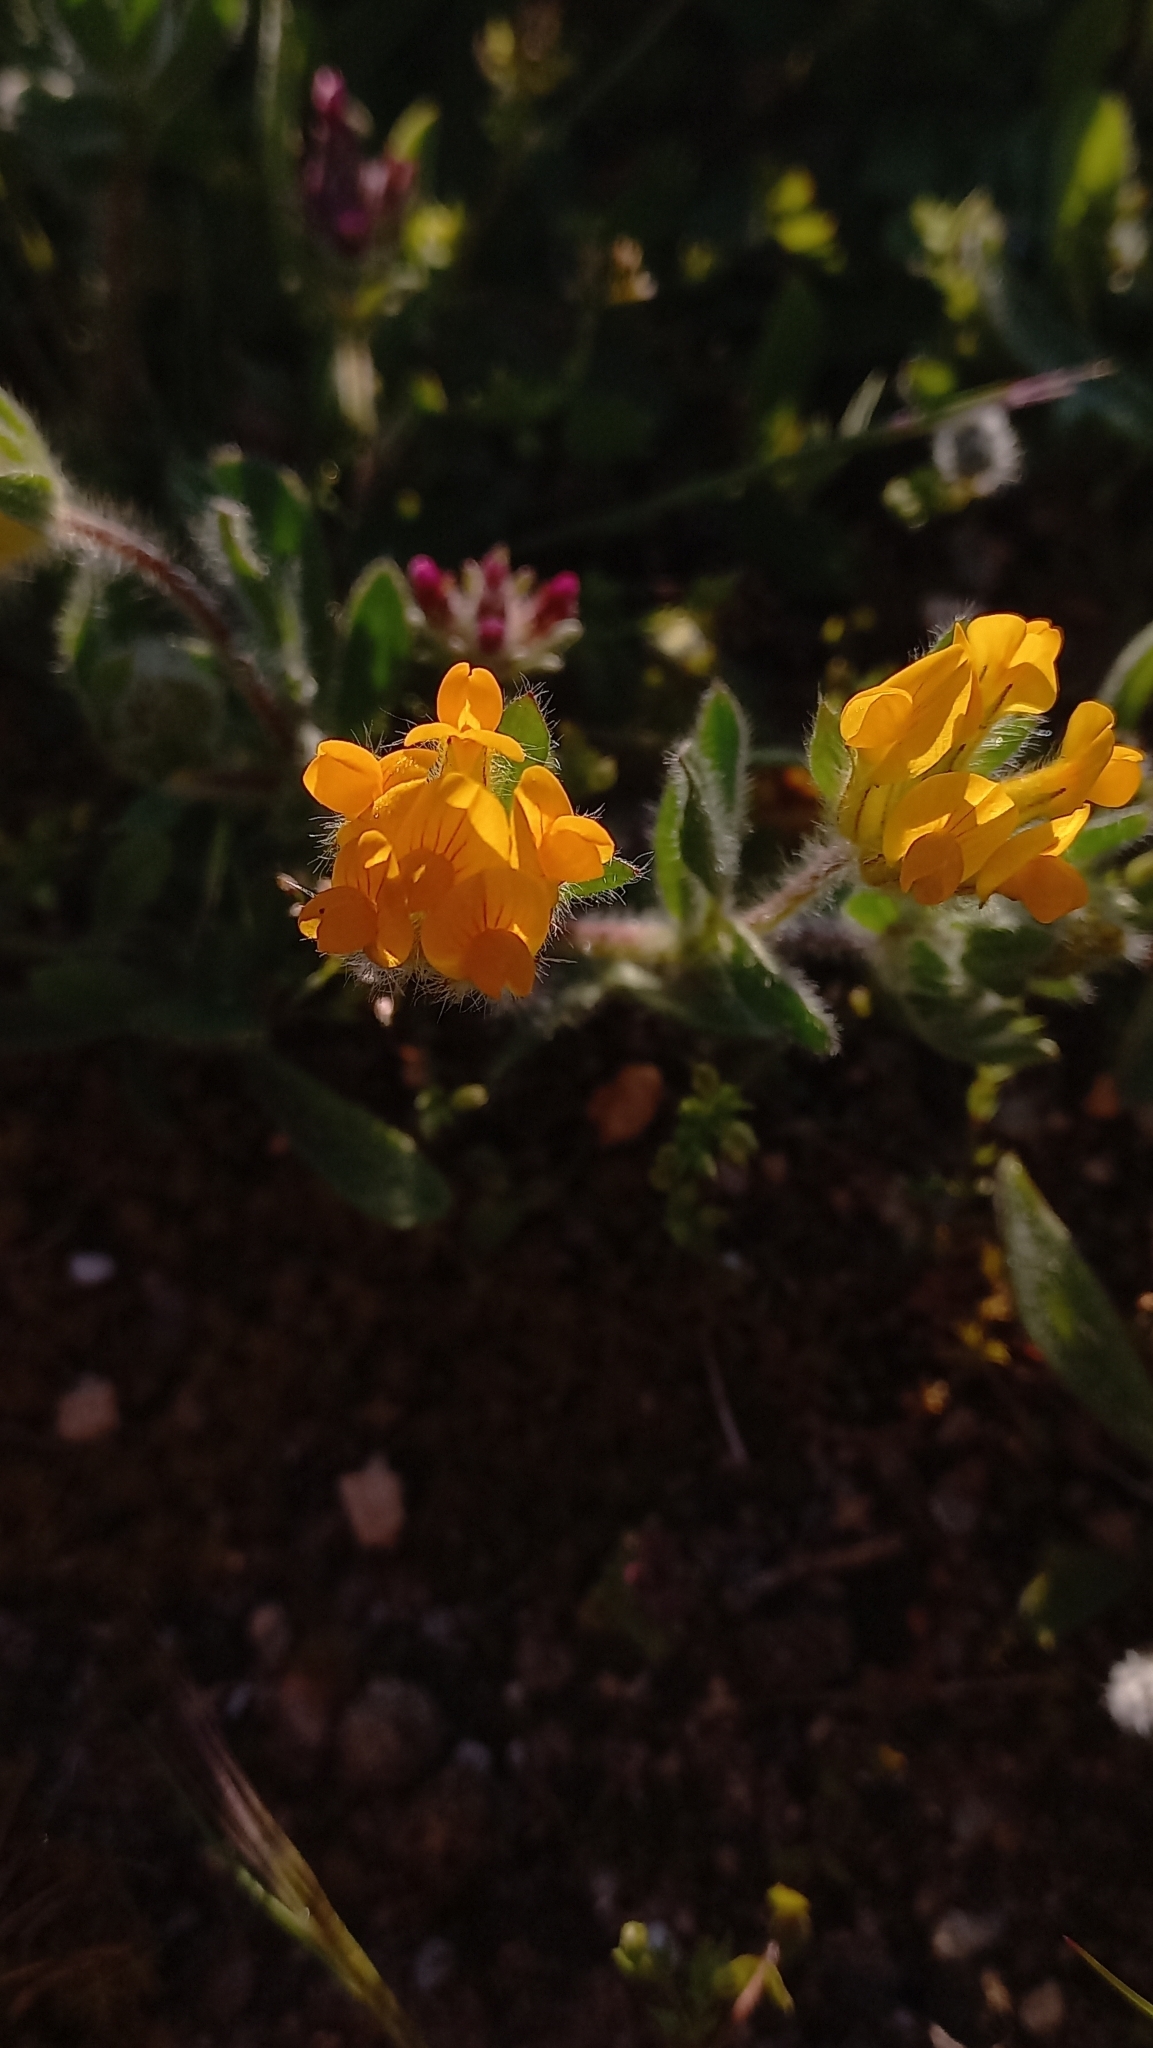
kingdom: Plantae
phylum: Tracheophyta
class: Magnoliopsida
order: Fabales
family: Fabaceae
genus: Anthyllis
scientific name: Anthyllis lotoides
